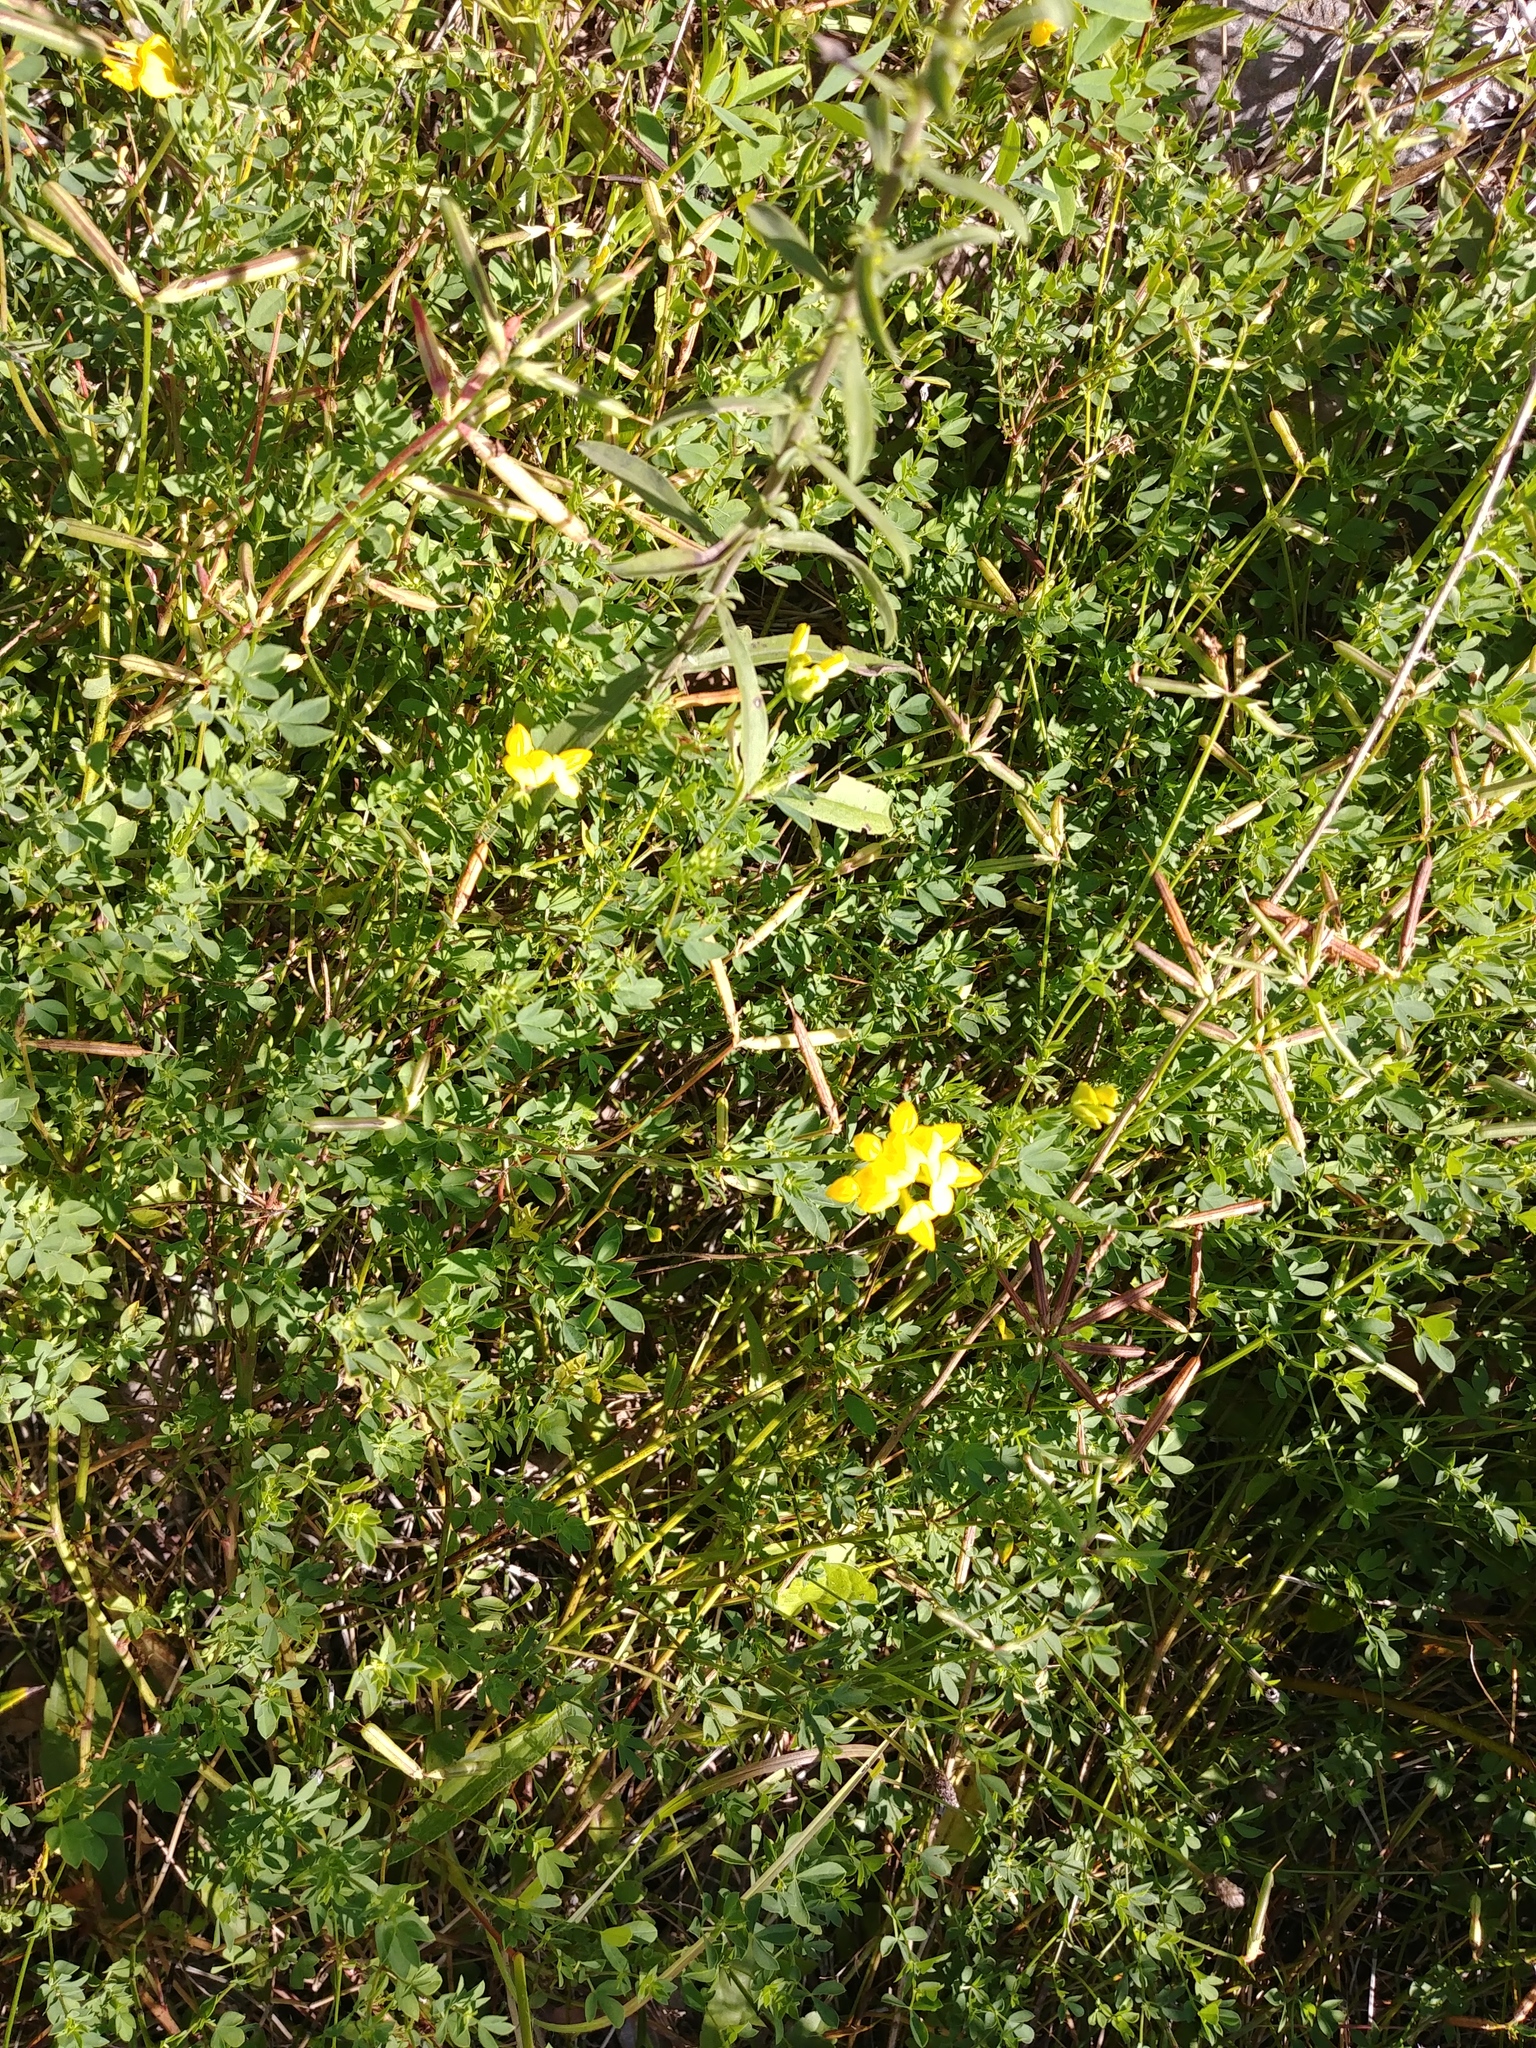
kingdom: Plantae
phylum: Tracheophyta
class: Magnoliopsida
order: Fabales
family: Fabaceae
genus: Lotus
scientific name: Lotus corniculatus
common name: Common bird's-foot-trefoil
